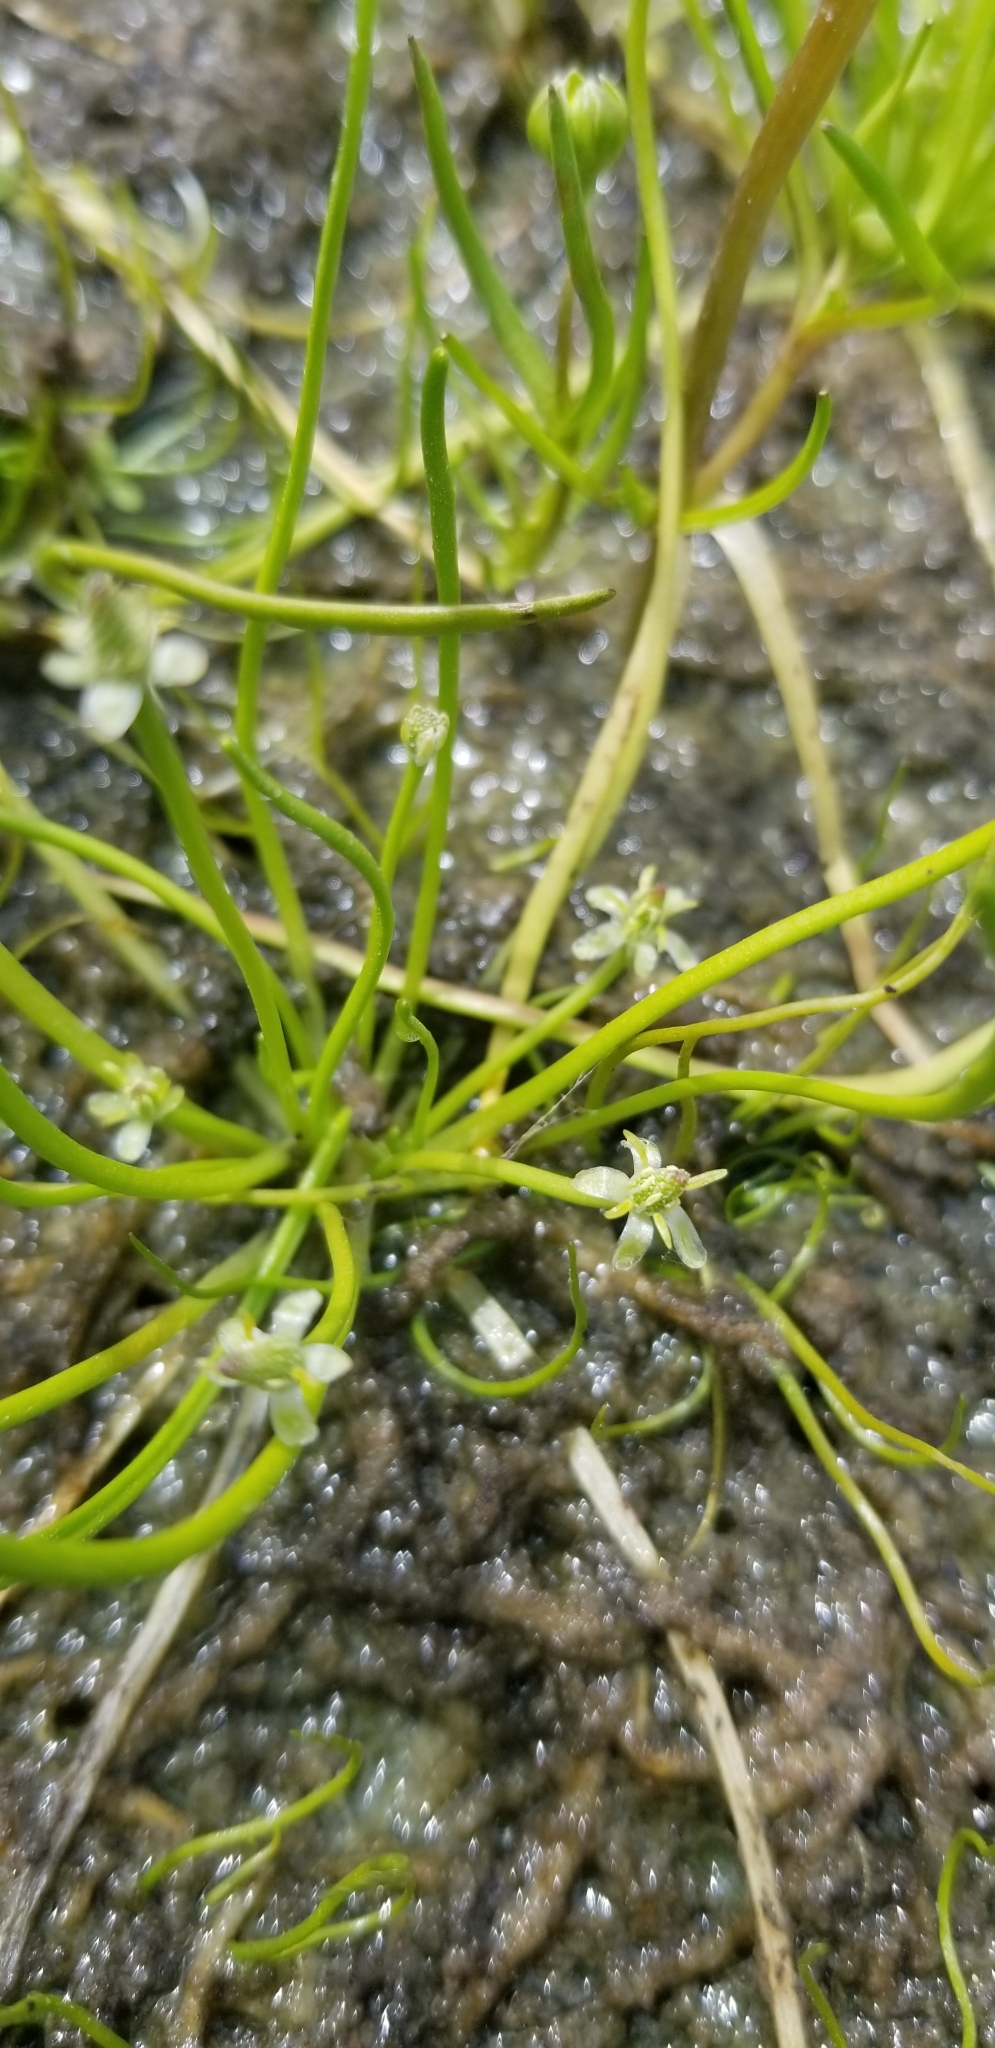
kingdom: Plantae
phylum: Tracheophyta
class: Magnoliopsida
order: Ranunculales
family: Ranunculaceae
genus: Myosurus
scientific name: Myosurus minimus
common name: Mousetail
